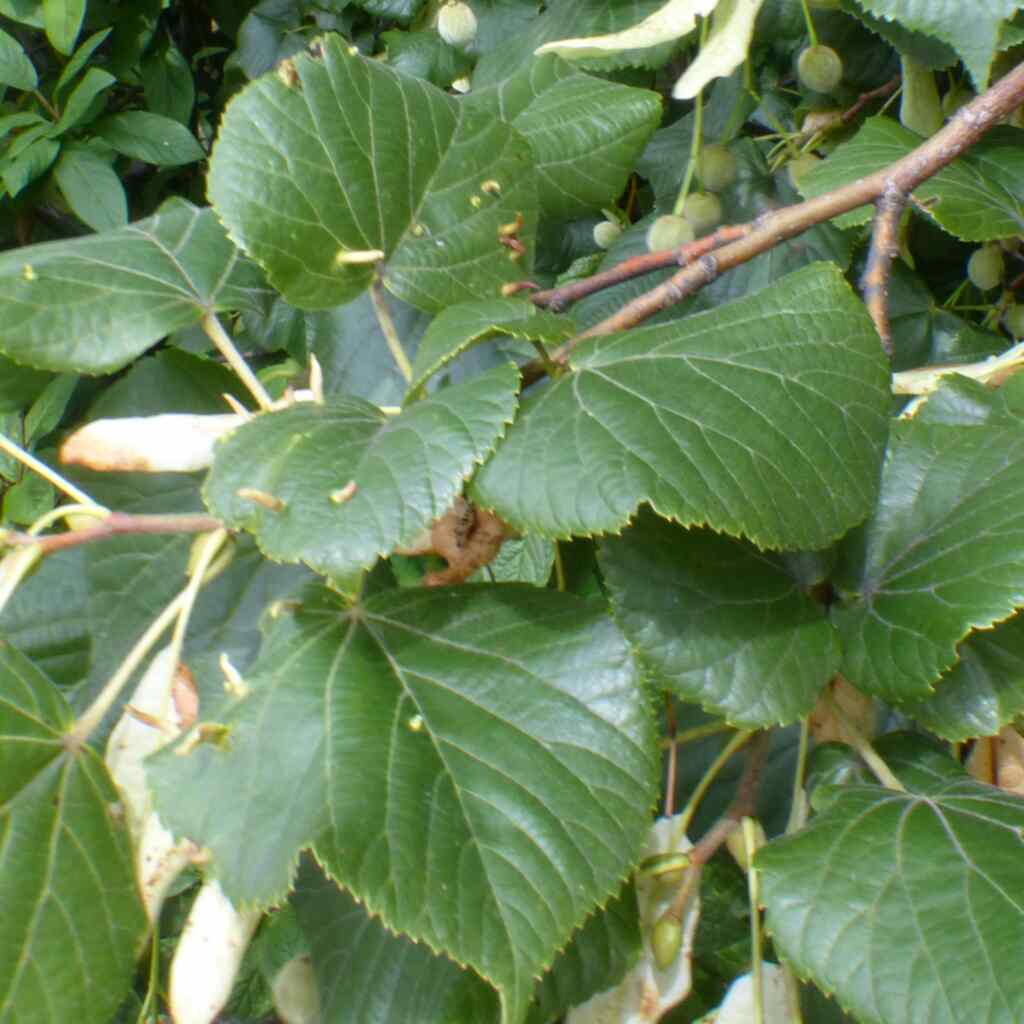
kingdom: Animalia
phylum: Arthropoda
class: Arachnida
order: Trombidiformes
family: Eriophyidae
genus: Eriophyes
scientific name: Eriophyes tiliae
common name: Red nail gall mite
